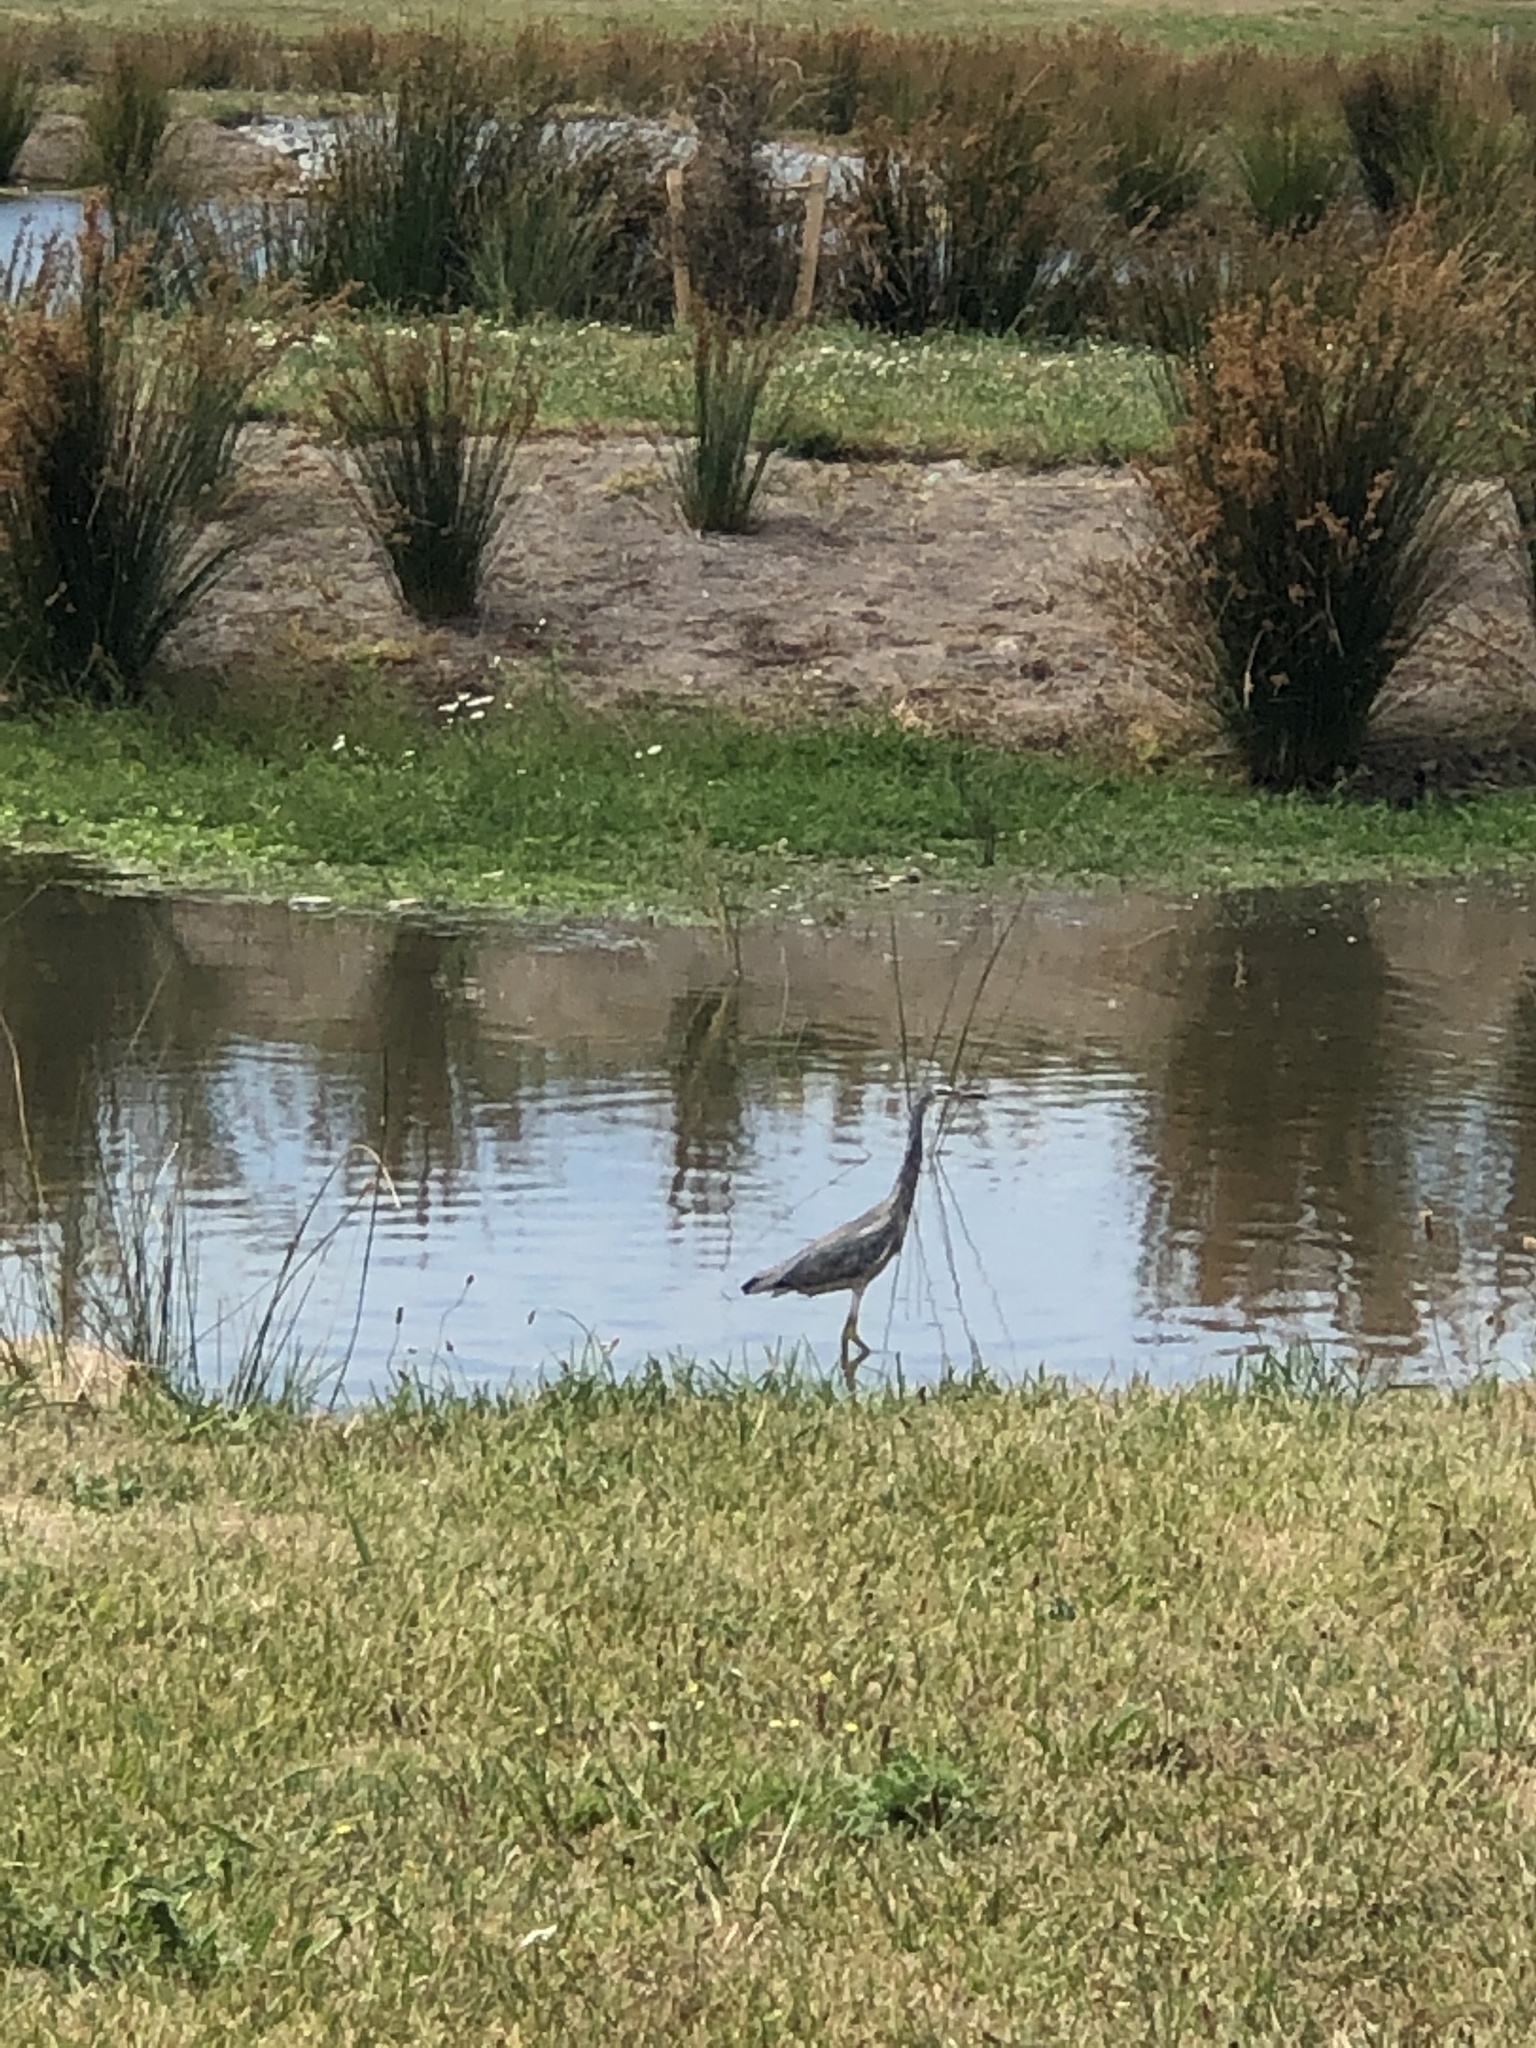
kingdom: Animalia
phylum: Chordata
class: Aves
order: Pelecaniformes
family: Ardeidae
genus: Egretta
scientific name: Egretta novaehollandiae
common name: White-faced heron
